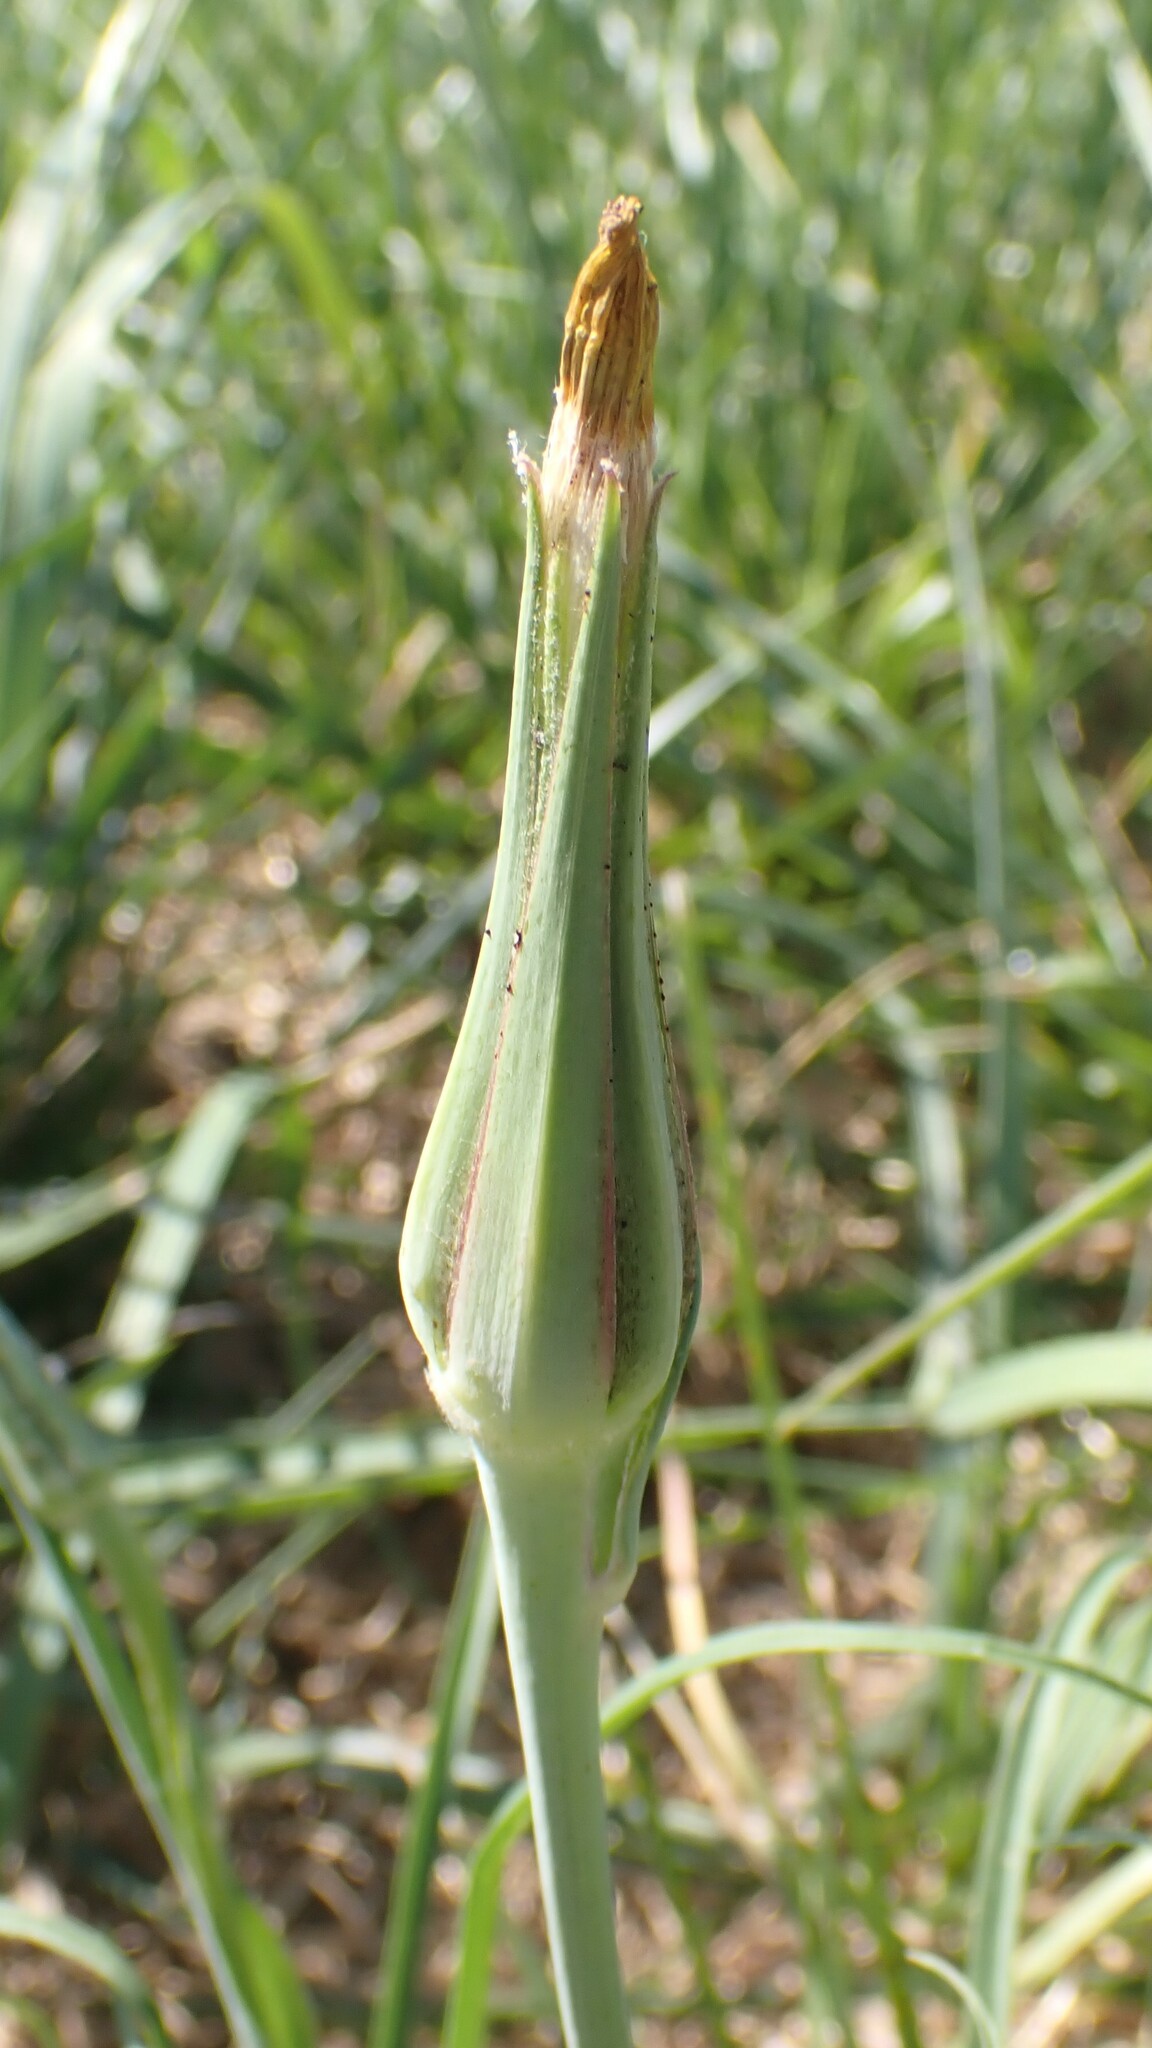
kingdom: Plantae
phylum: Tracheophyta
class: Magnoliopsida
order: Asterales
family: Asteraceae
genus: Tragopogon
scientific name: Tragopogon dubius
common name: Yellow salsify
